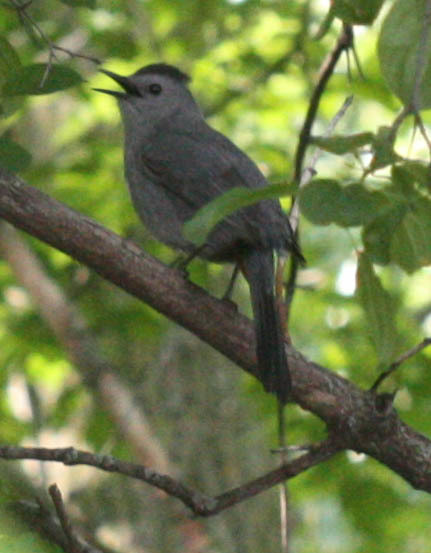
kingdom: Animalia
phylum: Chordata
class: Aves
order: Passeriformes
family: Mimidae
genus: Dumetella
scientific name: Dumetella carolinensis
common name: Gray catbird
